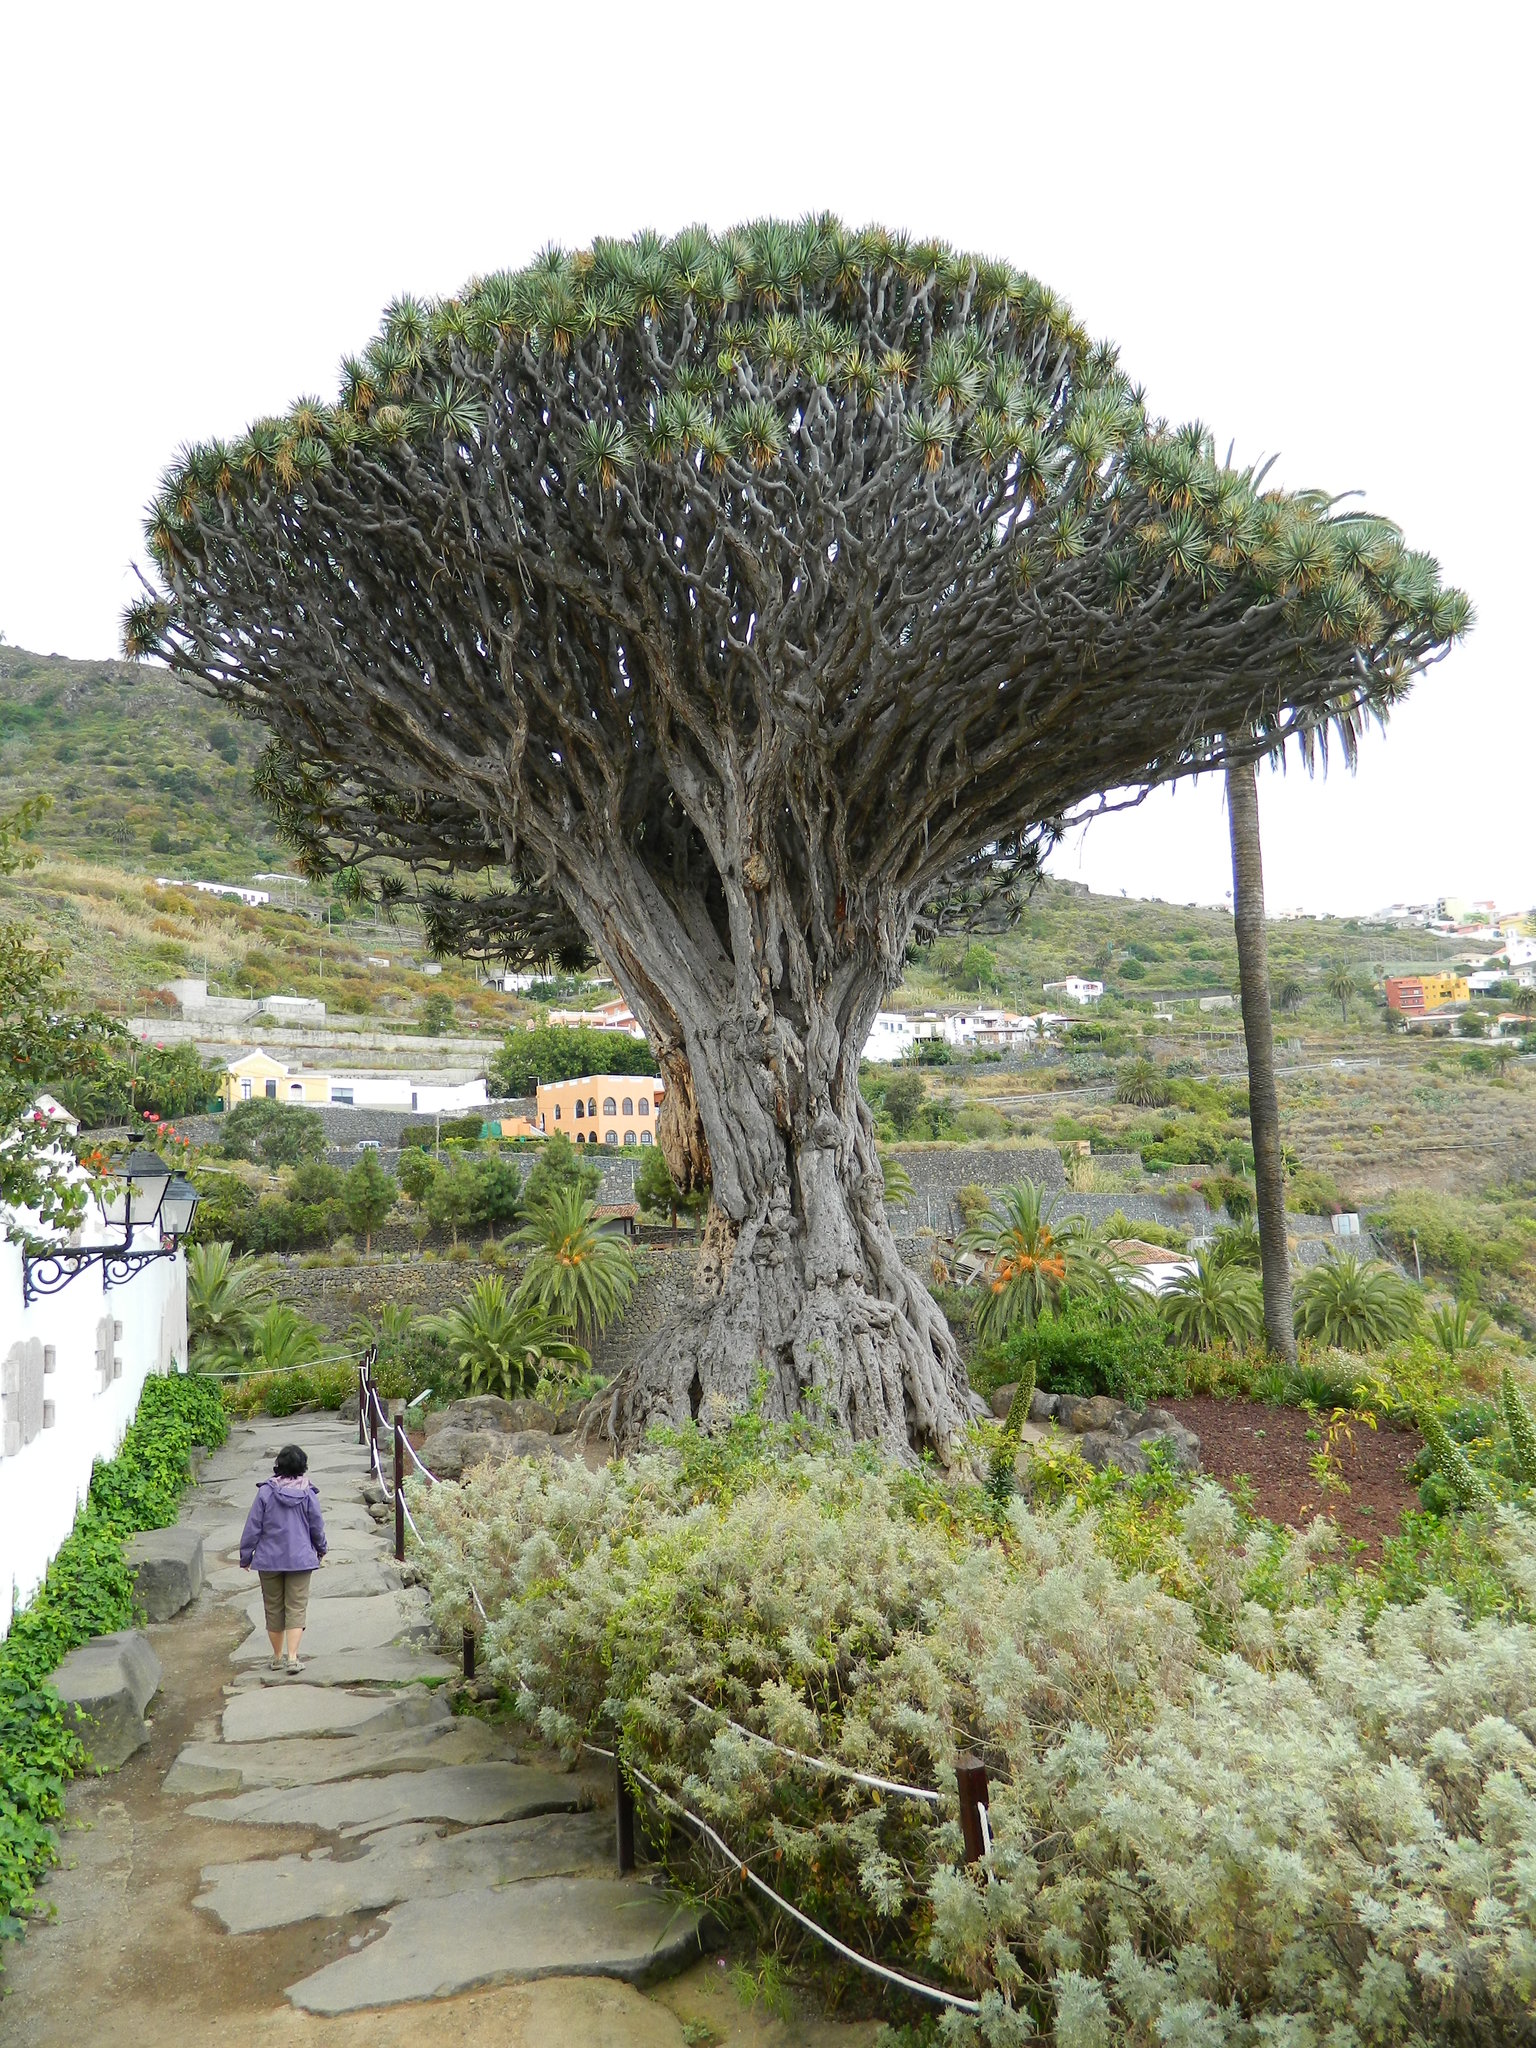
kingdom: Plantae
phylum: Tracheophyta
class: Liliopsida
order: Asparagales
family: Asparagaceae
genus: Dracaena
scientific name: Dracaena draco
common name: Canary island dragon tree
